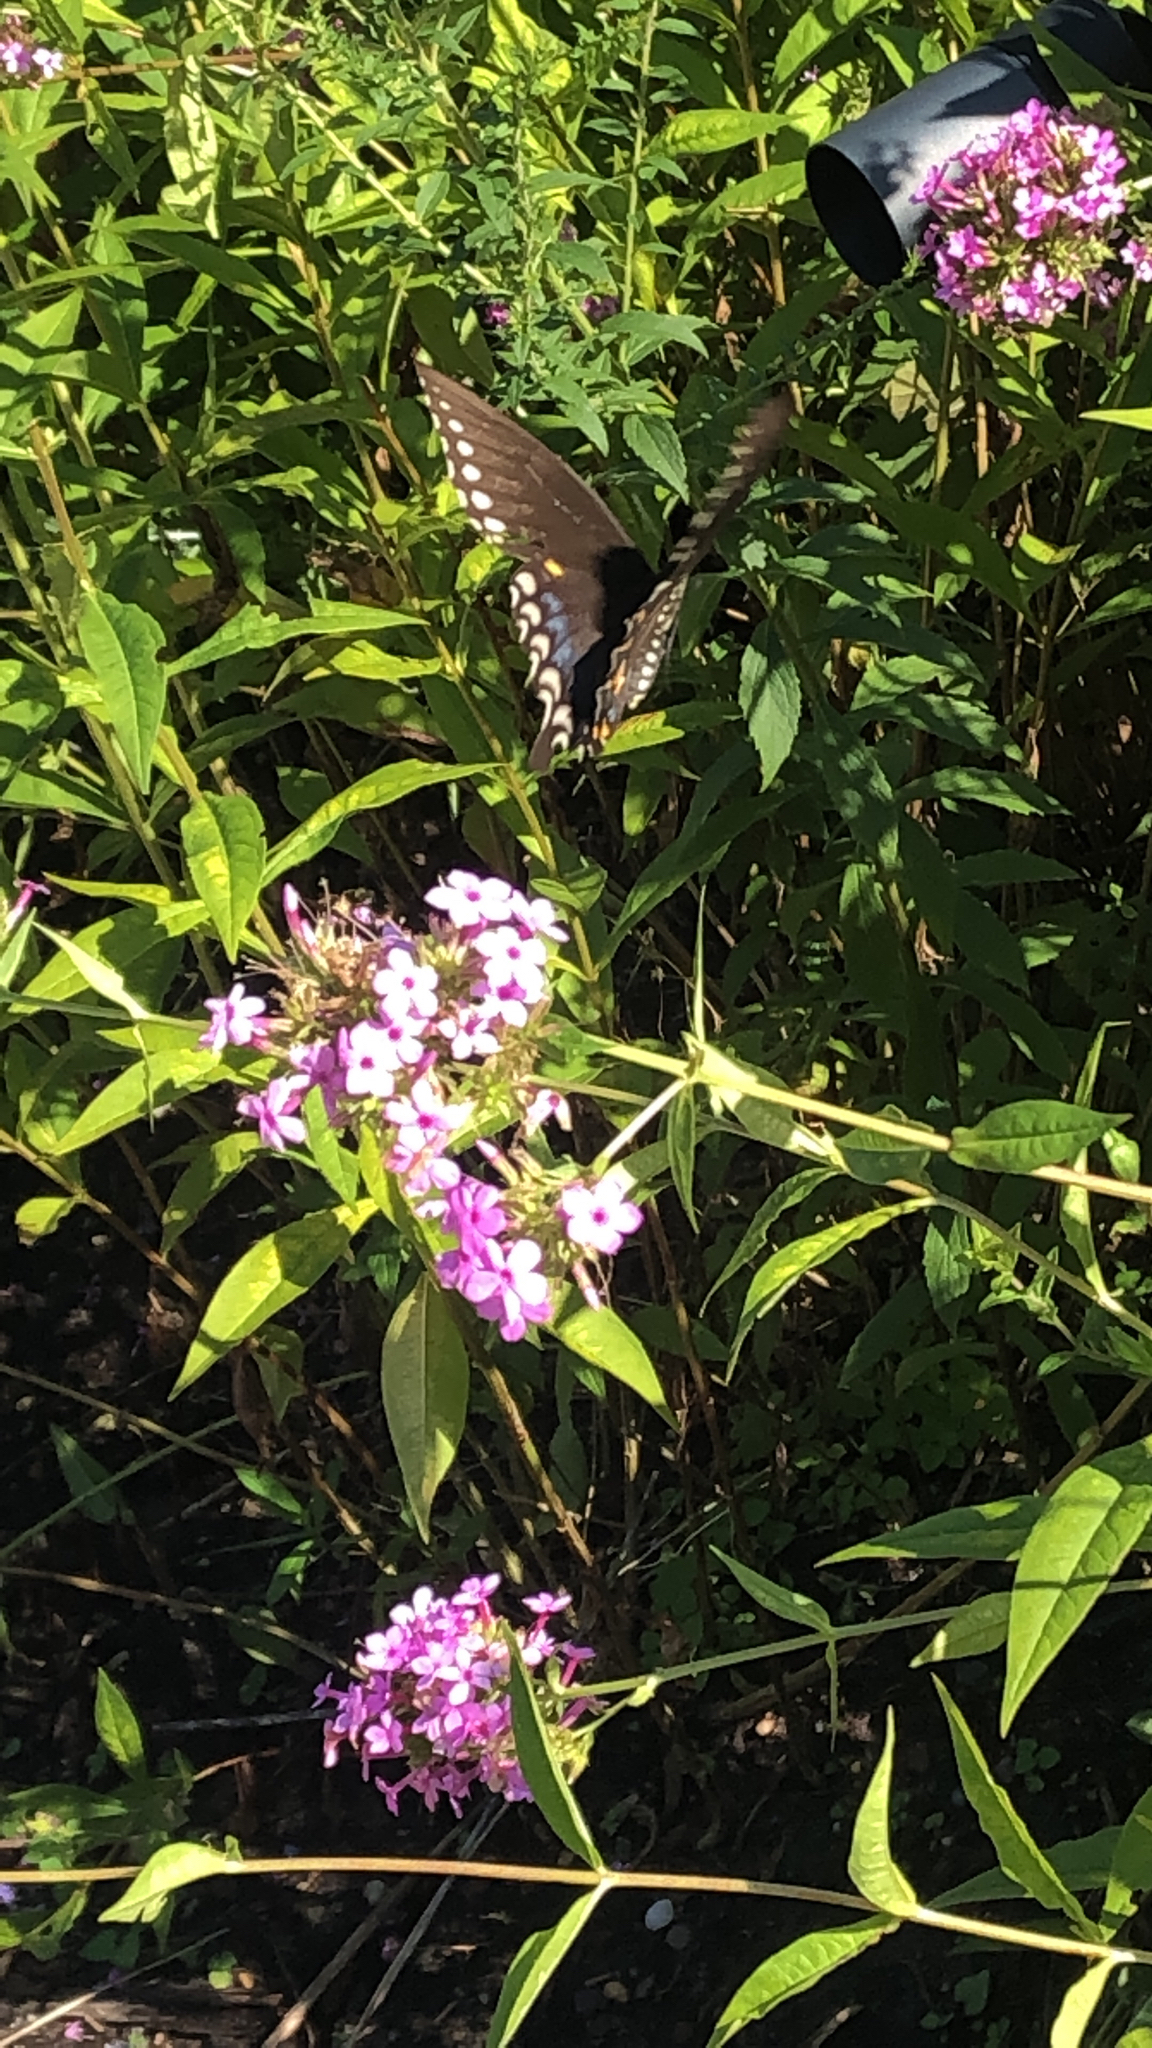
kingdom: Animalia
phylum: Arthropoda
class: Insecta
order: Lepidoptera
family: Papilionidae
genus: Papilio
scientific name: Papilio troilus
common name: Spicebush swallowtail
